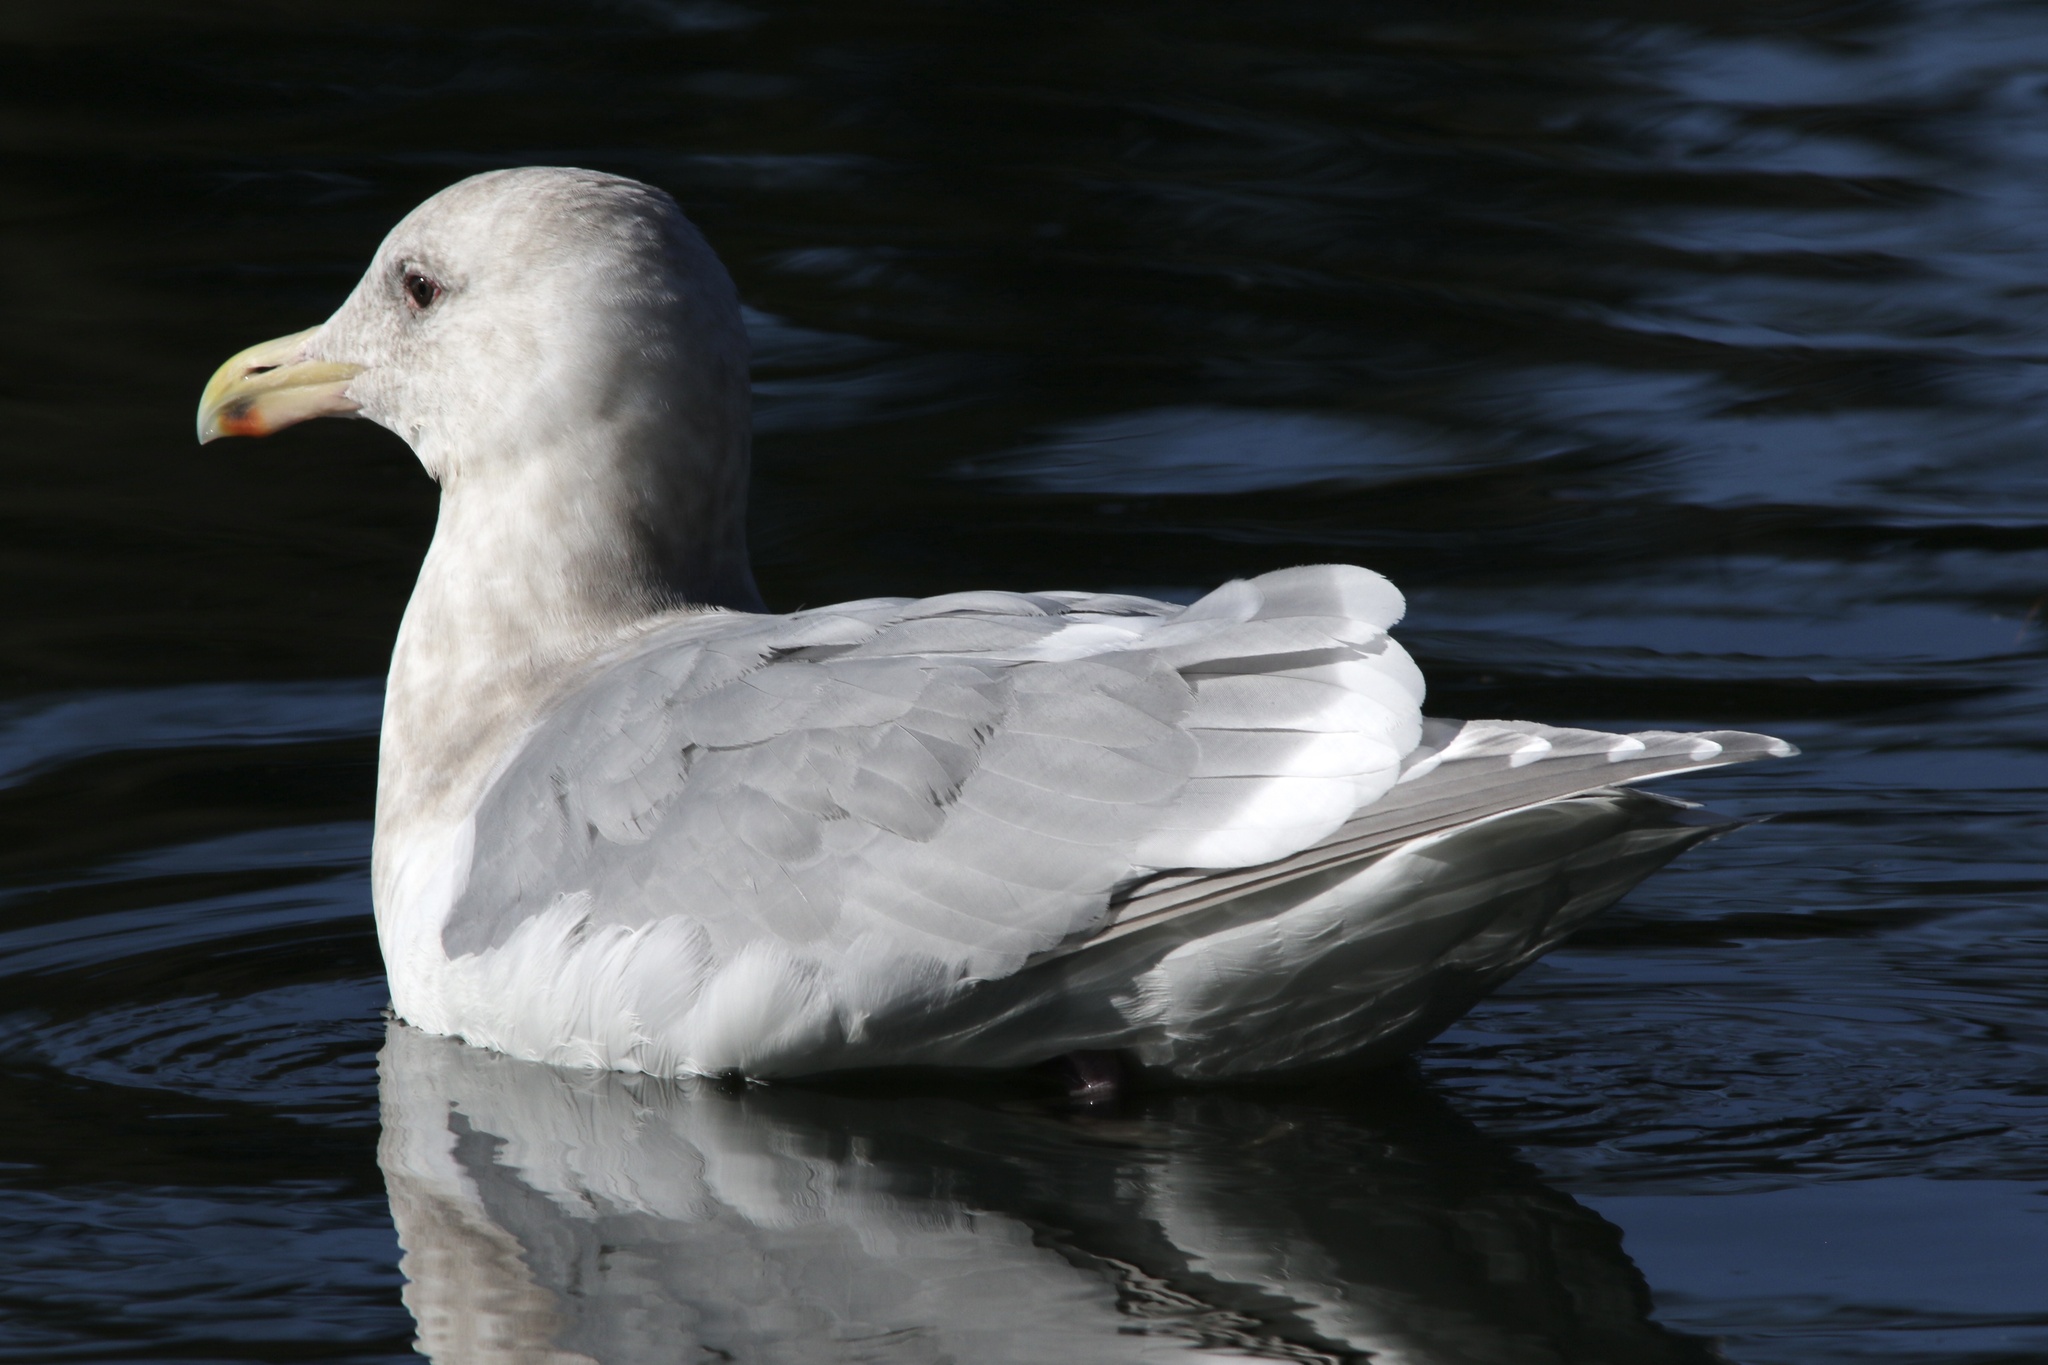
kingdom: Animalia
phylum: Chordata
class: Aves
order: Charadriiformes
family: Laridae
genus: Larus
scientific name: Larus
